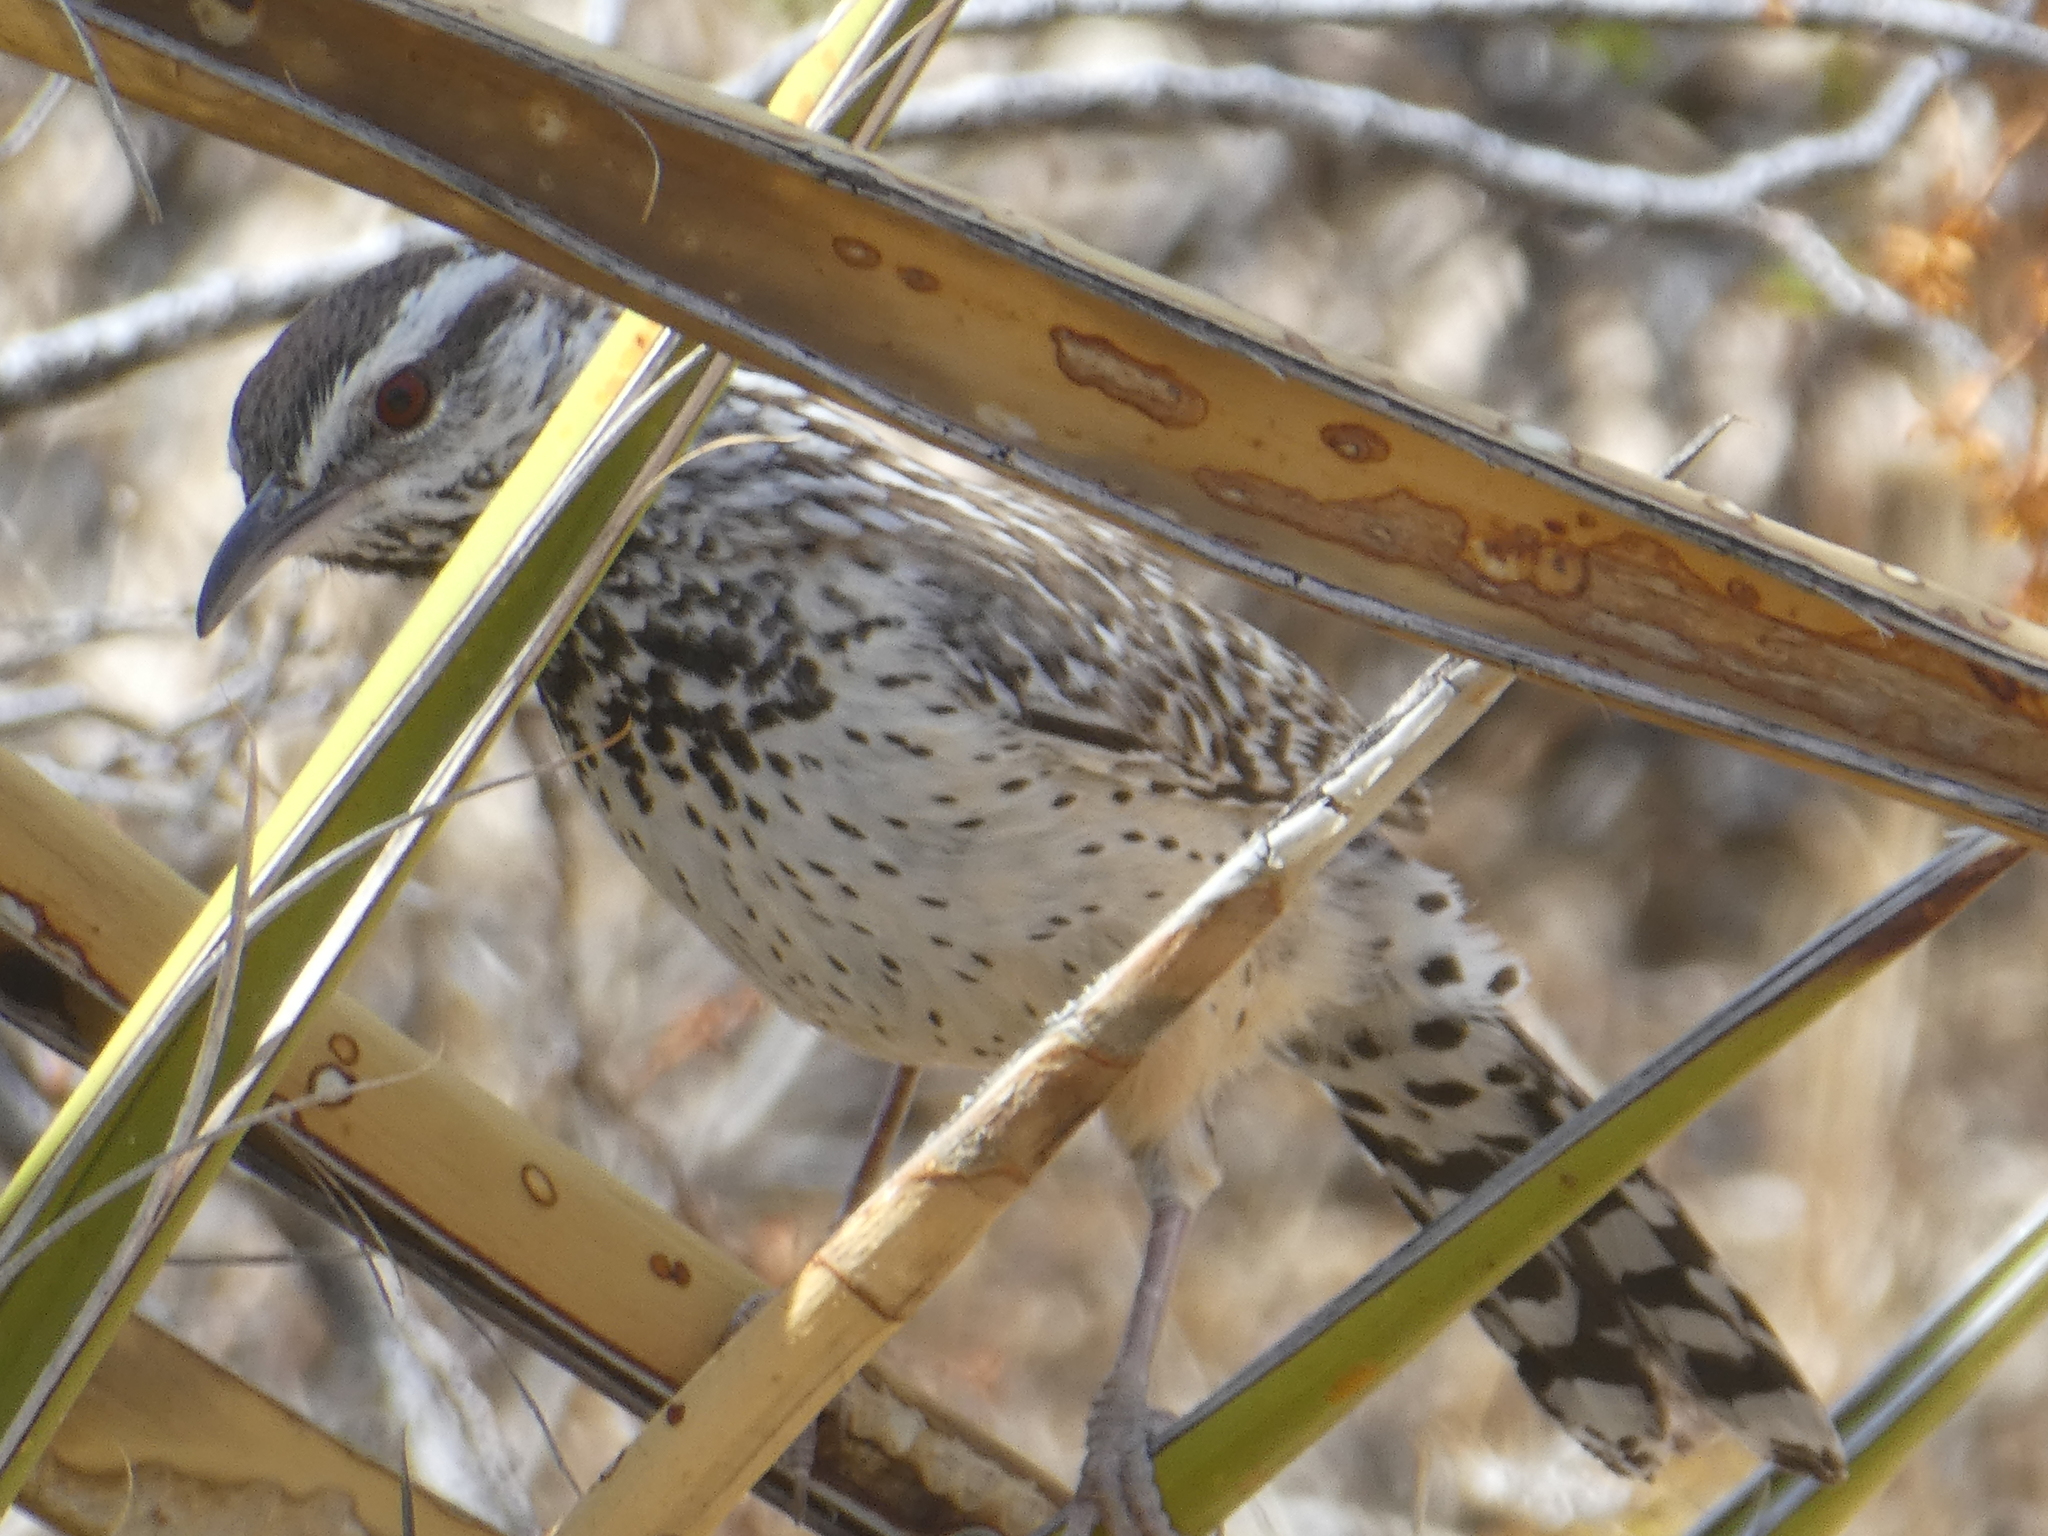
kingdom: Animalia
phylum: Chordata
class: Aves
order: Passeriformes
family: Troglodytidae
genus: Campylorhynchus
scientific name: Campylorhynchus brunneicapillus
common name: Cactus wren
